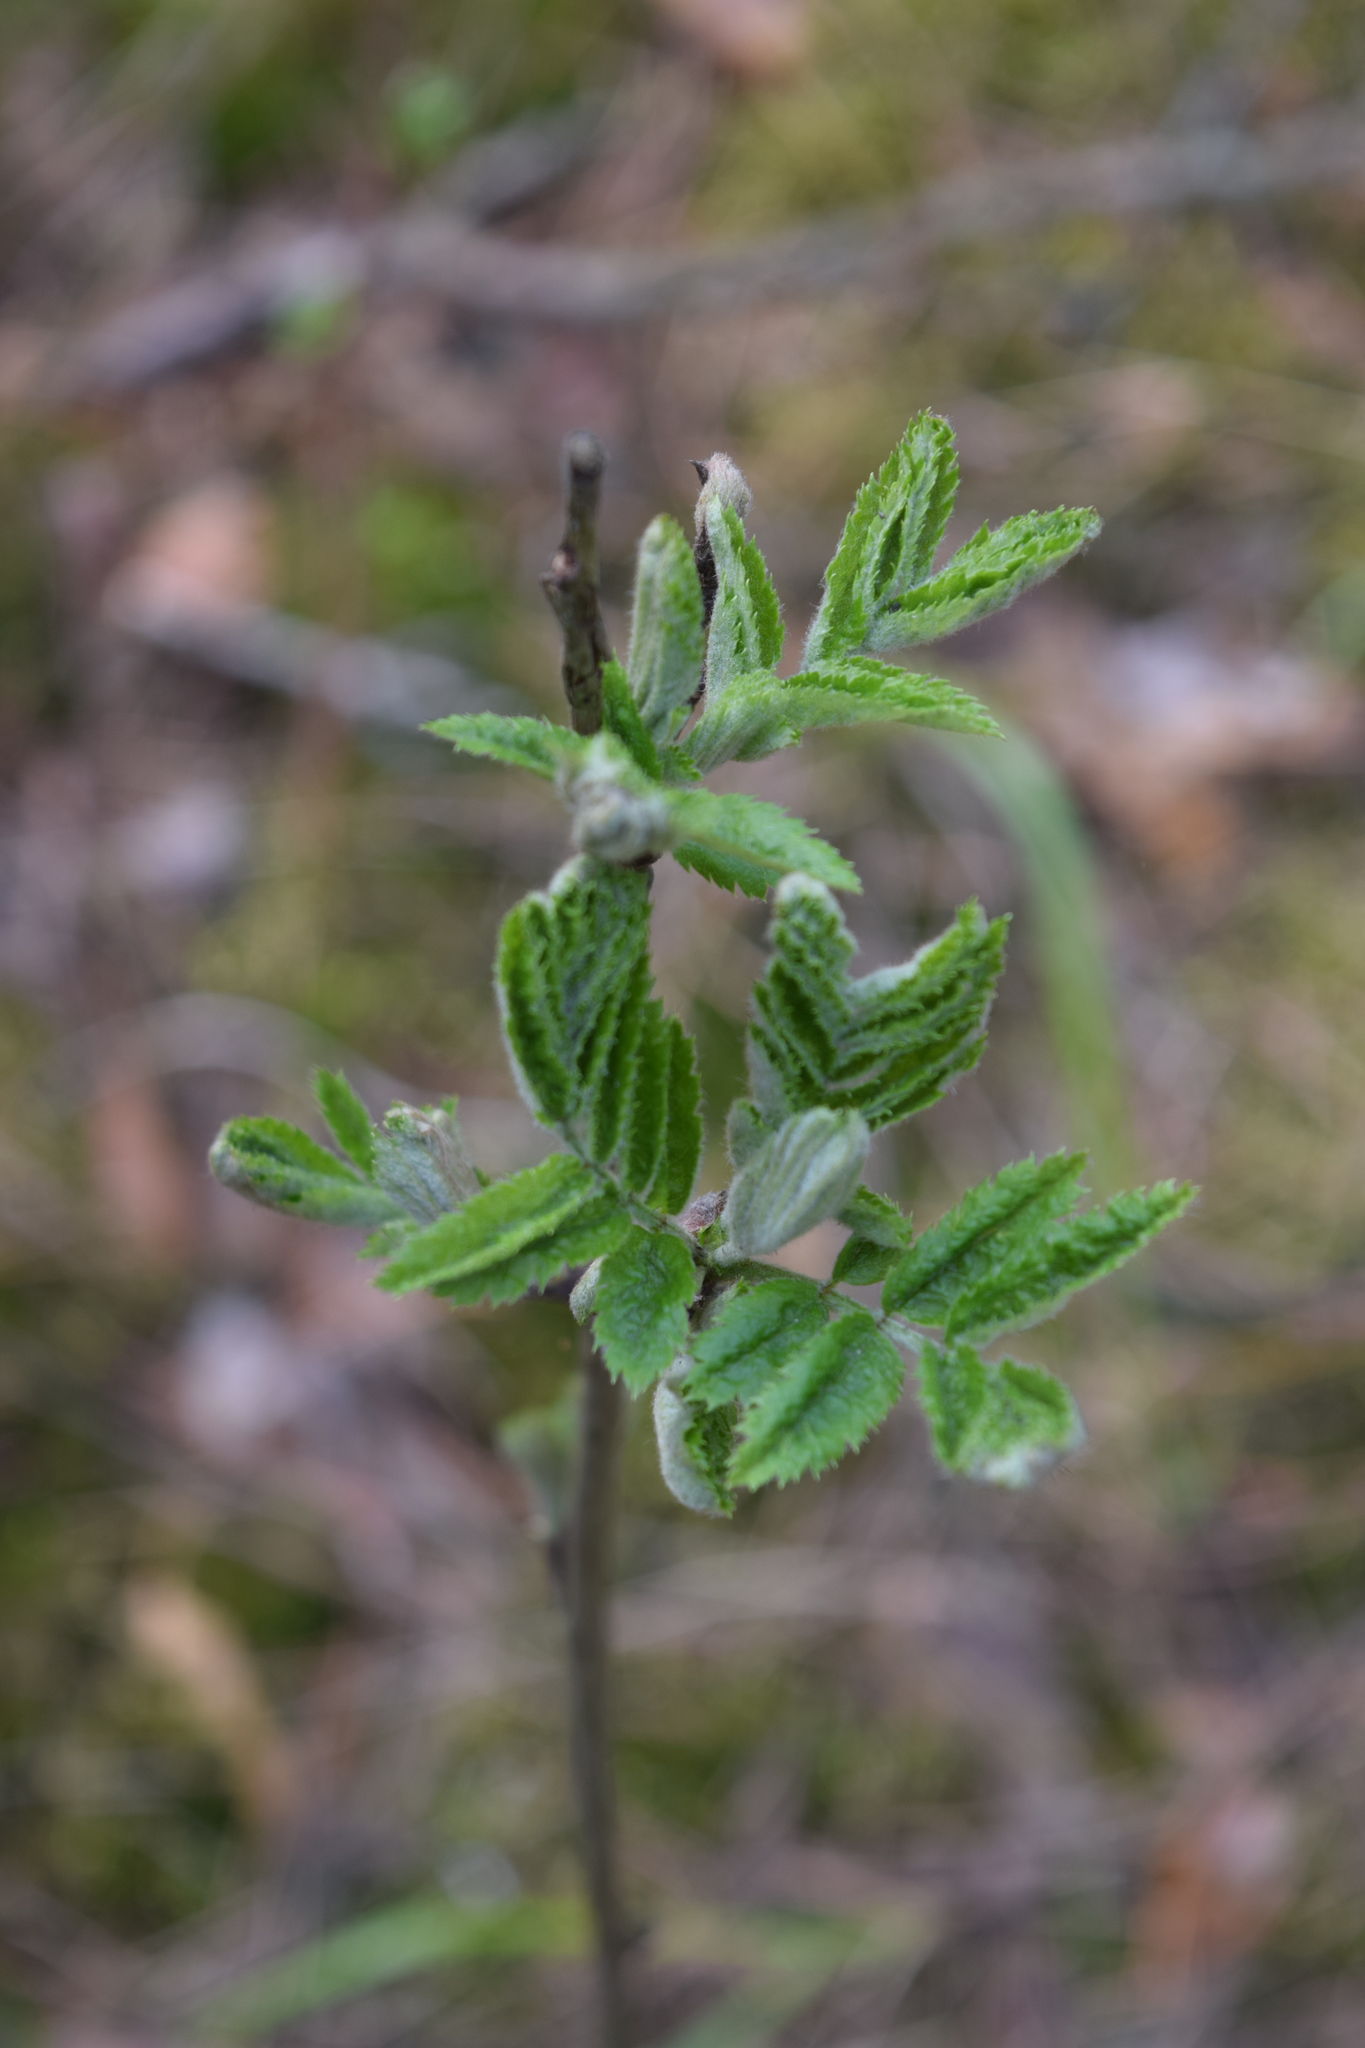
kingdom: Plantae
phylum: Tracheophyta
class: Magnoliopsida
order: Rosales
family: Rosaceae
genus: Sorbus
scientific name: Sorbus aucuparia
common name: Rowan
